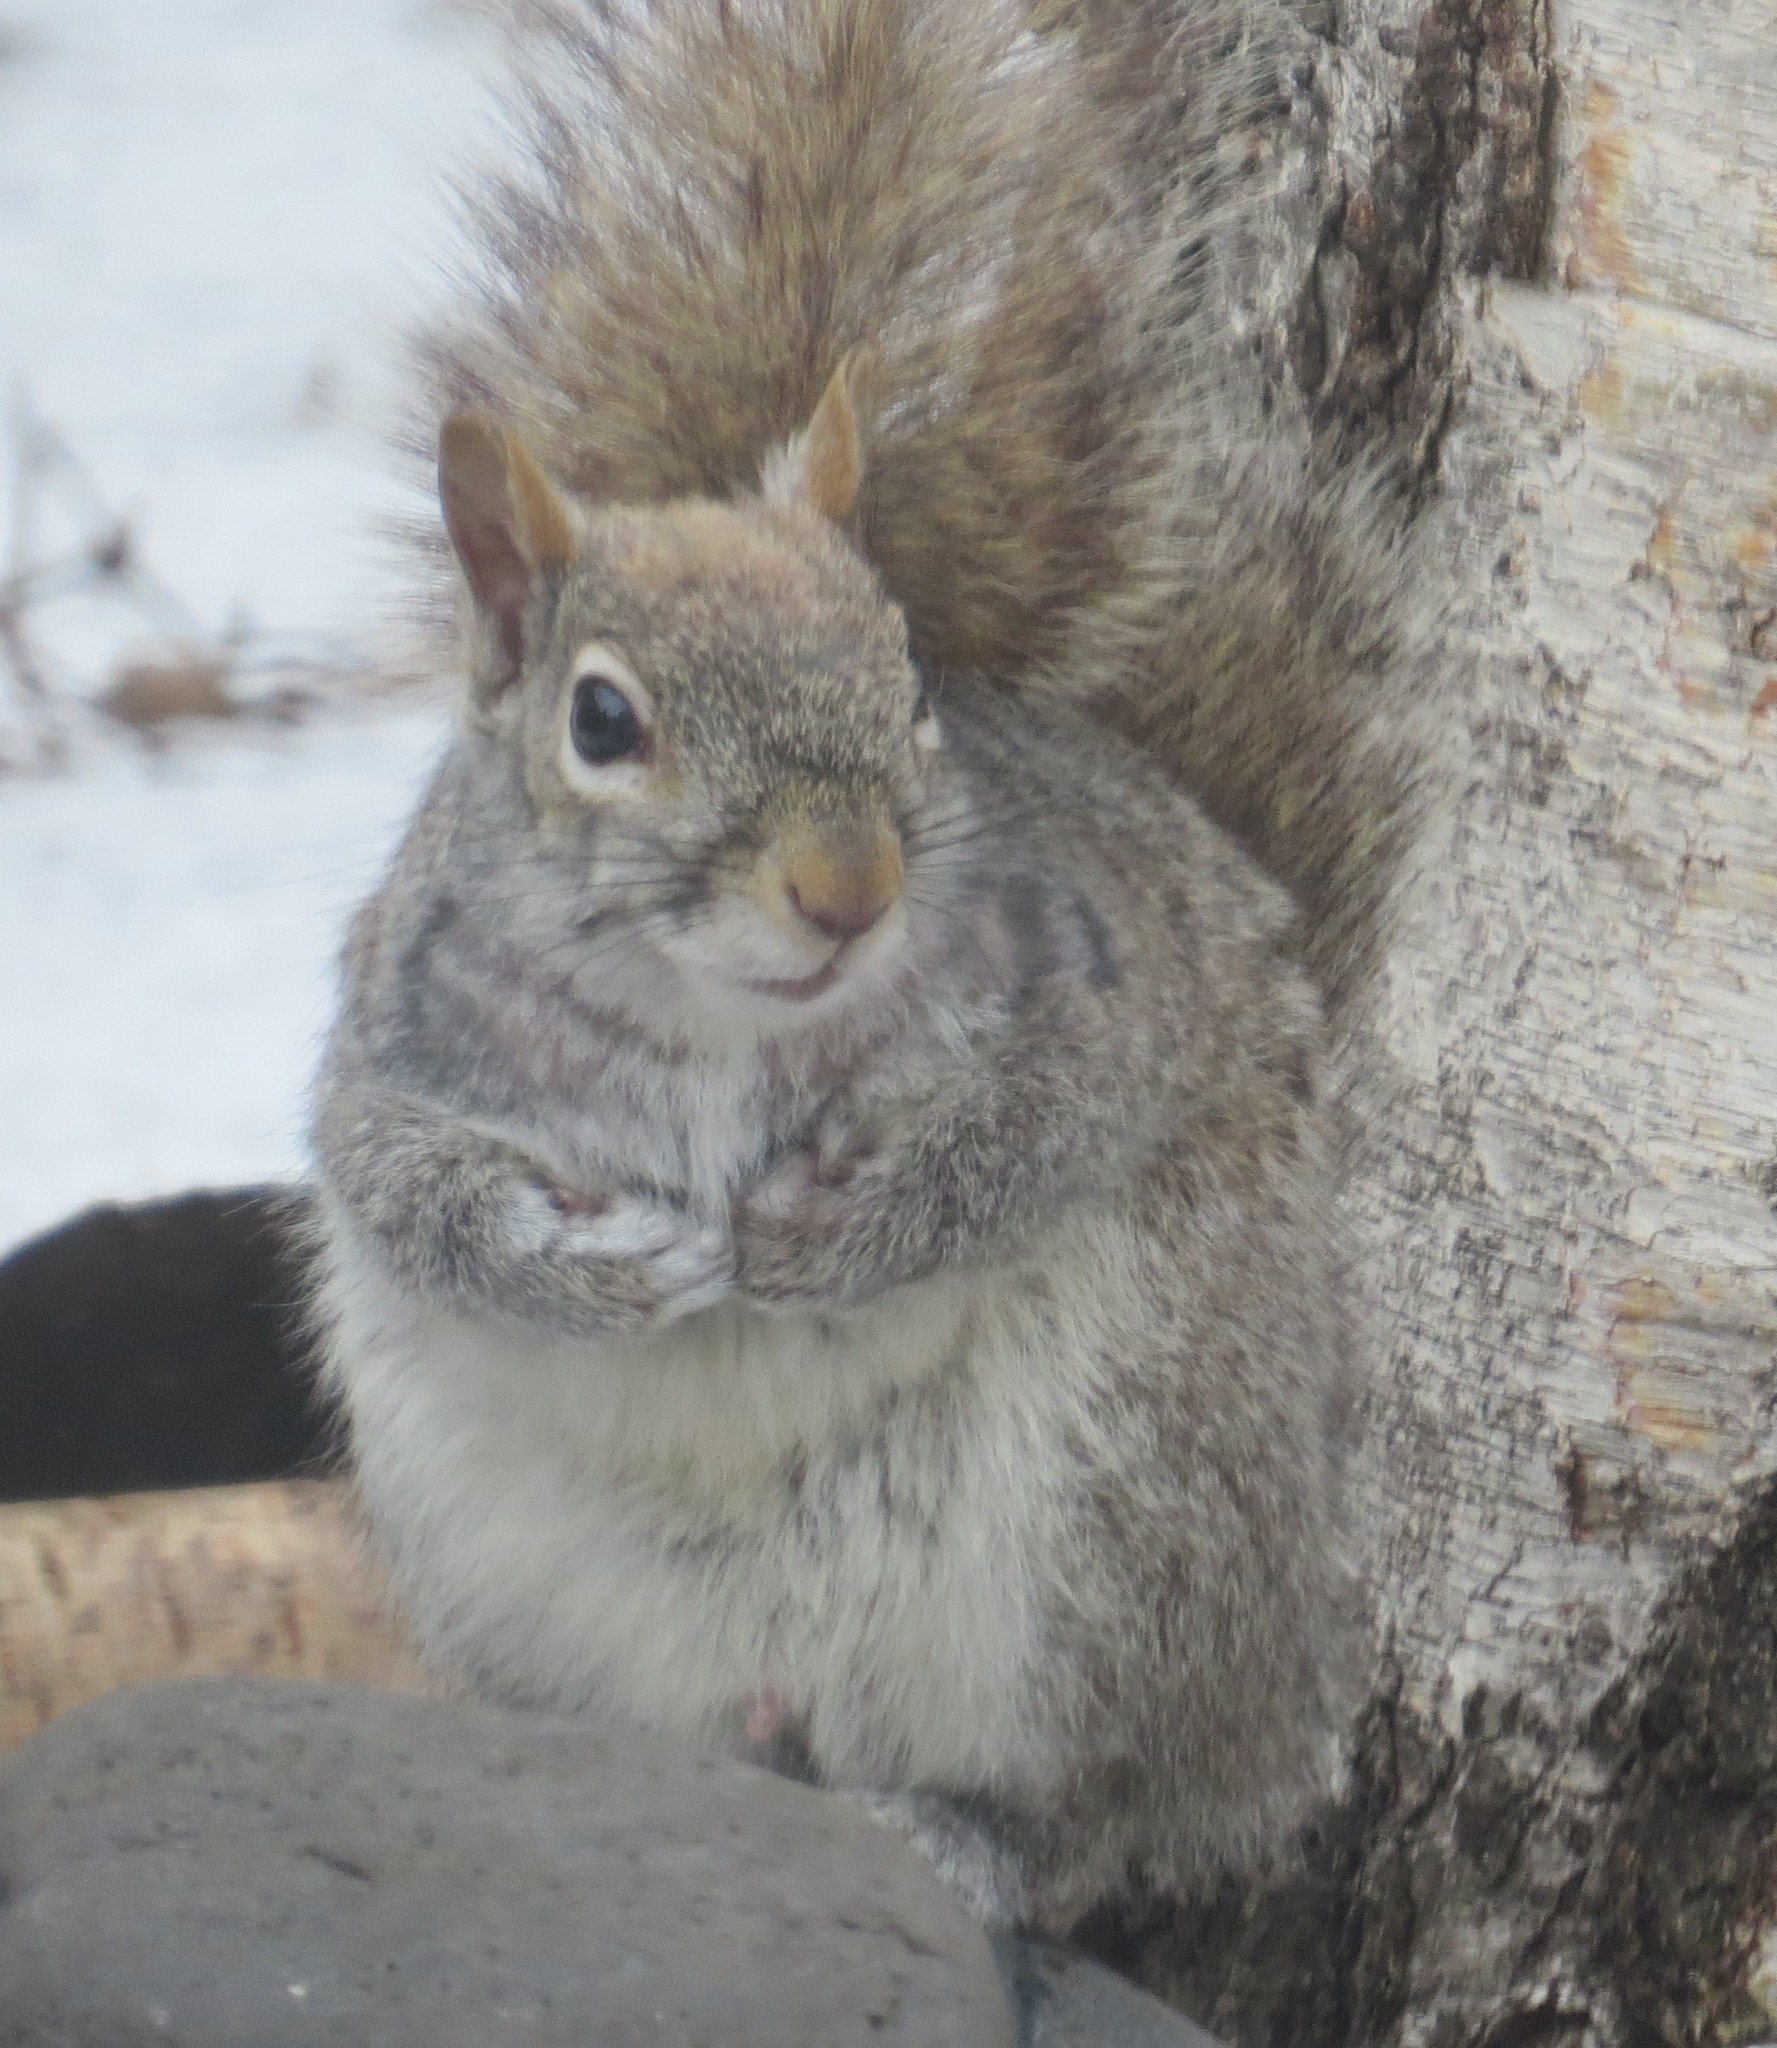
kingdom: Animalia
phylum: Chordata
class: Mammalia
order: Rodentia
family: Sciuridae
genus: Sciurus
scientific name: Sciurus carolinensis
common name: Eastern gray squirrel
